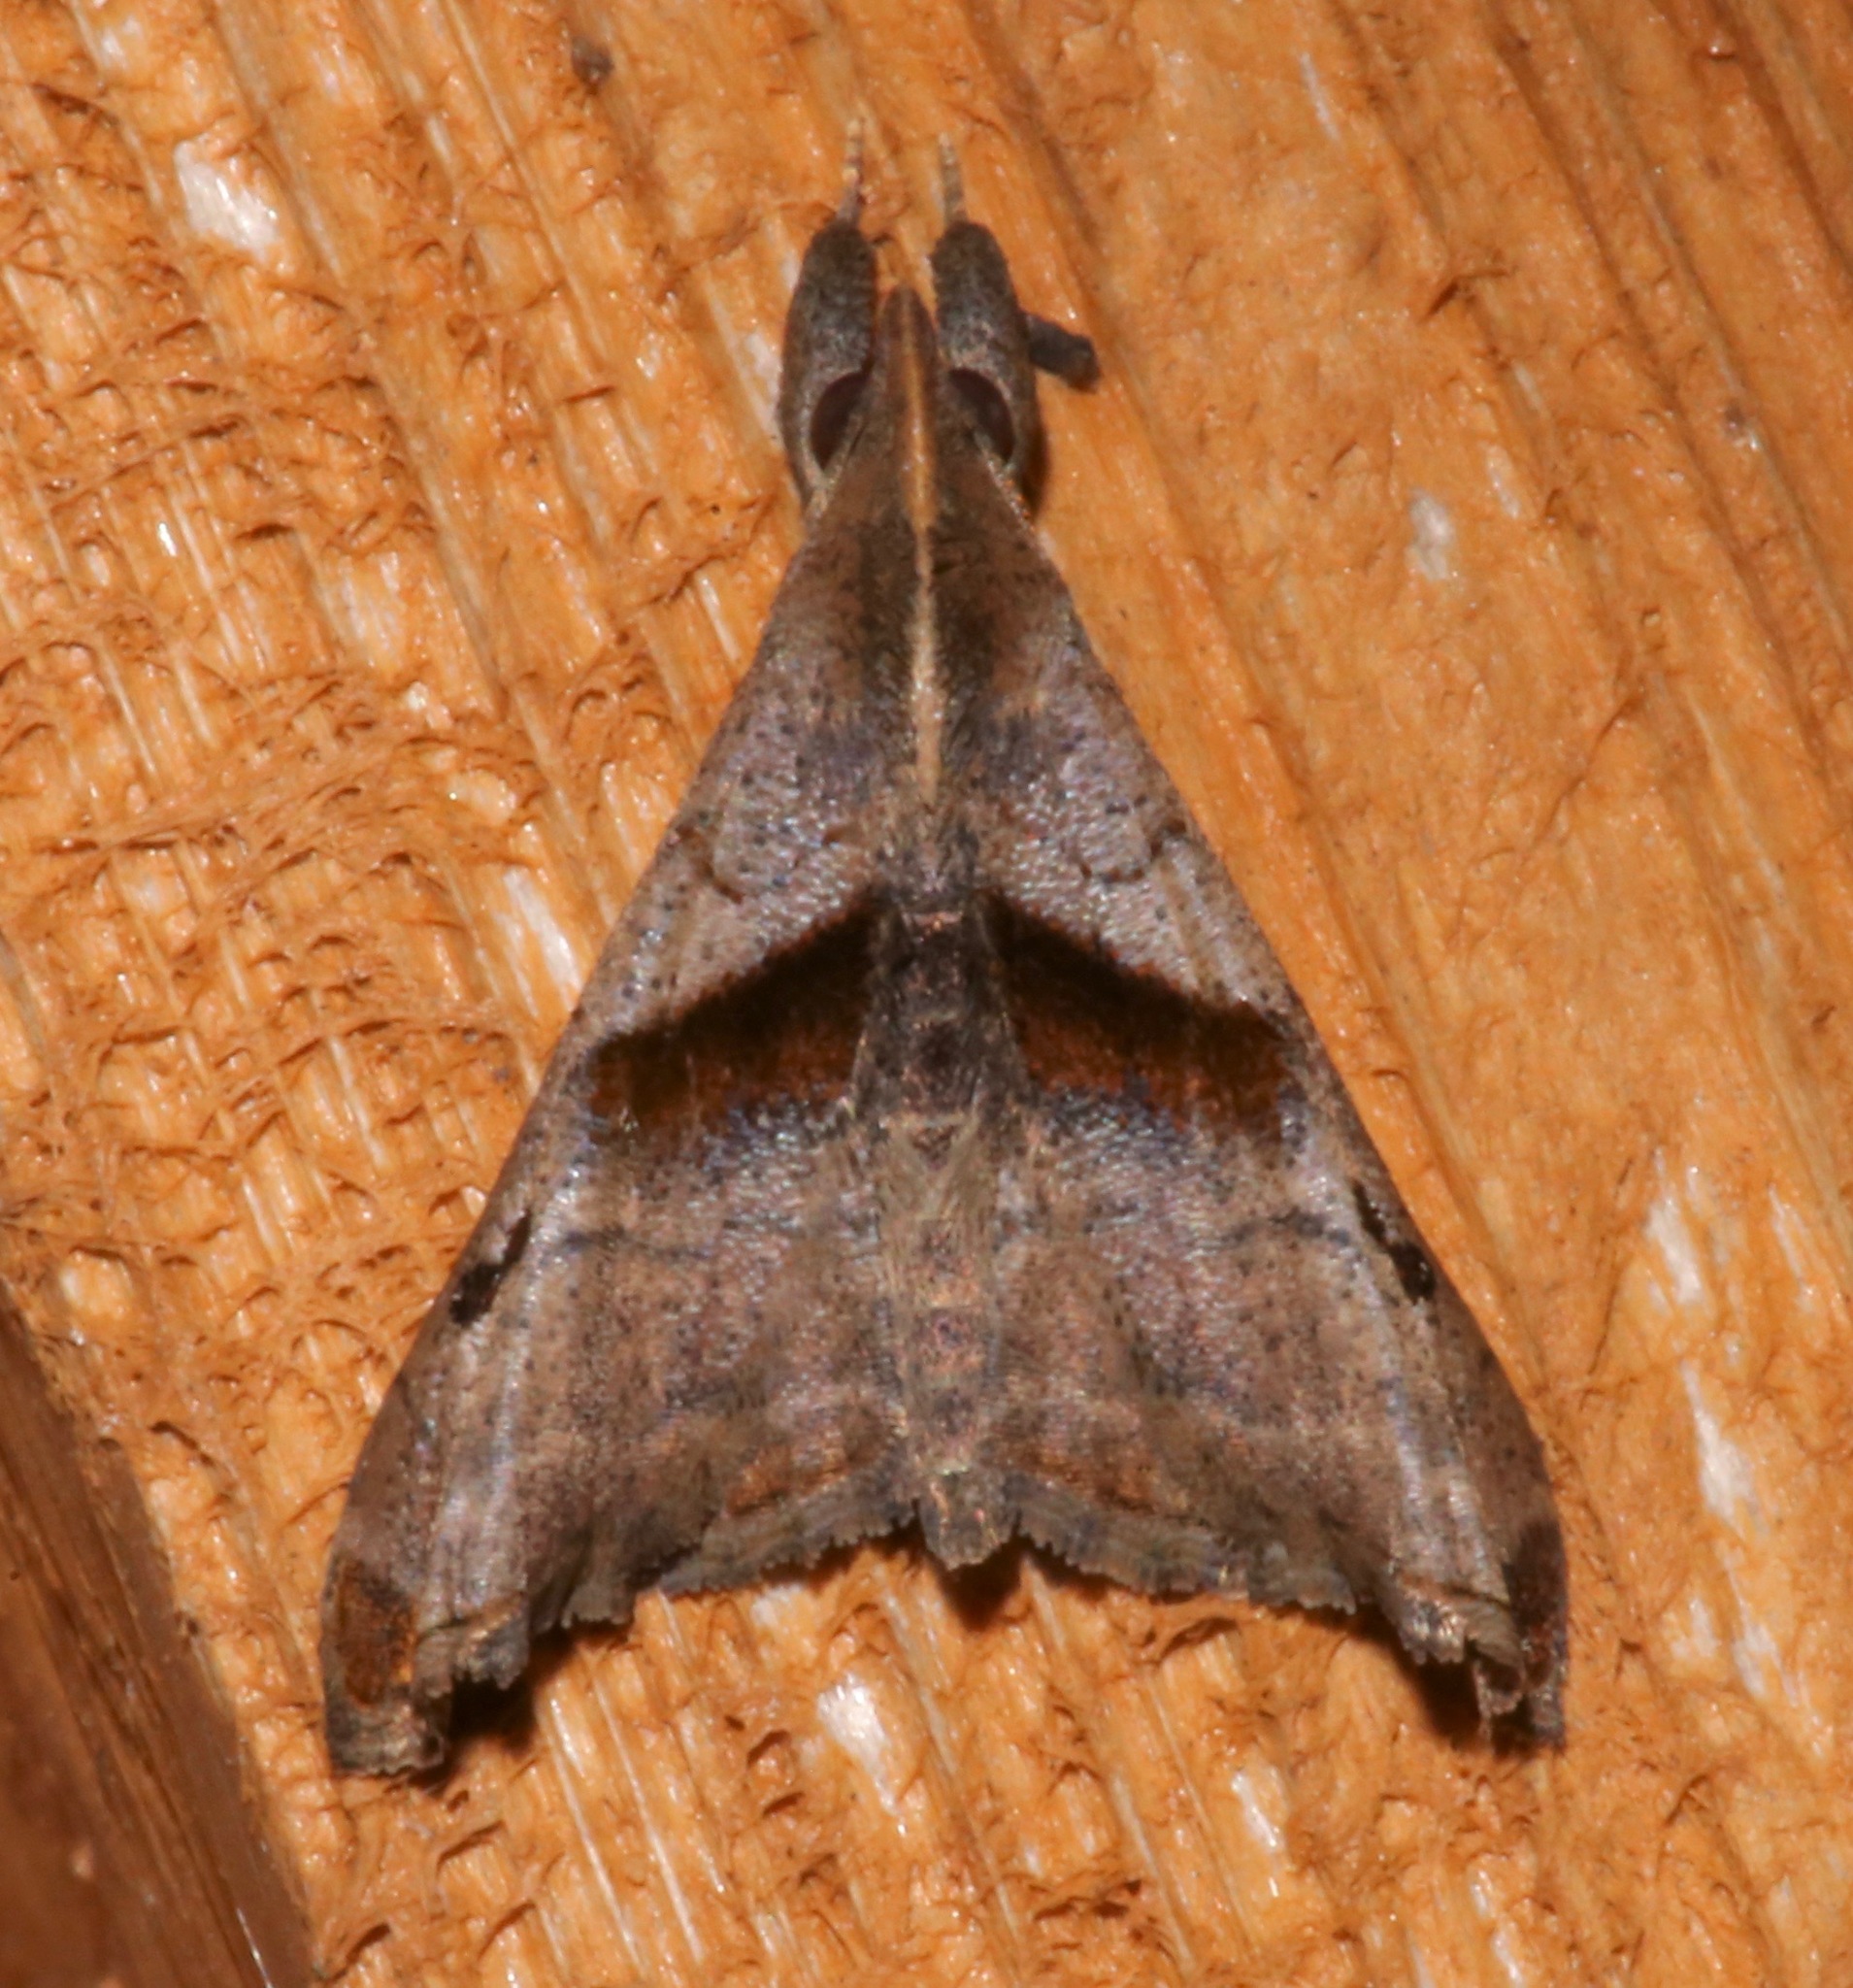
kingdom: Animalia
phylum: Arthropoda
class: Insecta
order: Lepidoptera
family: Erebidae
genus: Palthis
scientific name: Palthis angulalis
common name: Dark-spotted palthis moth
